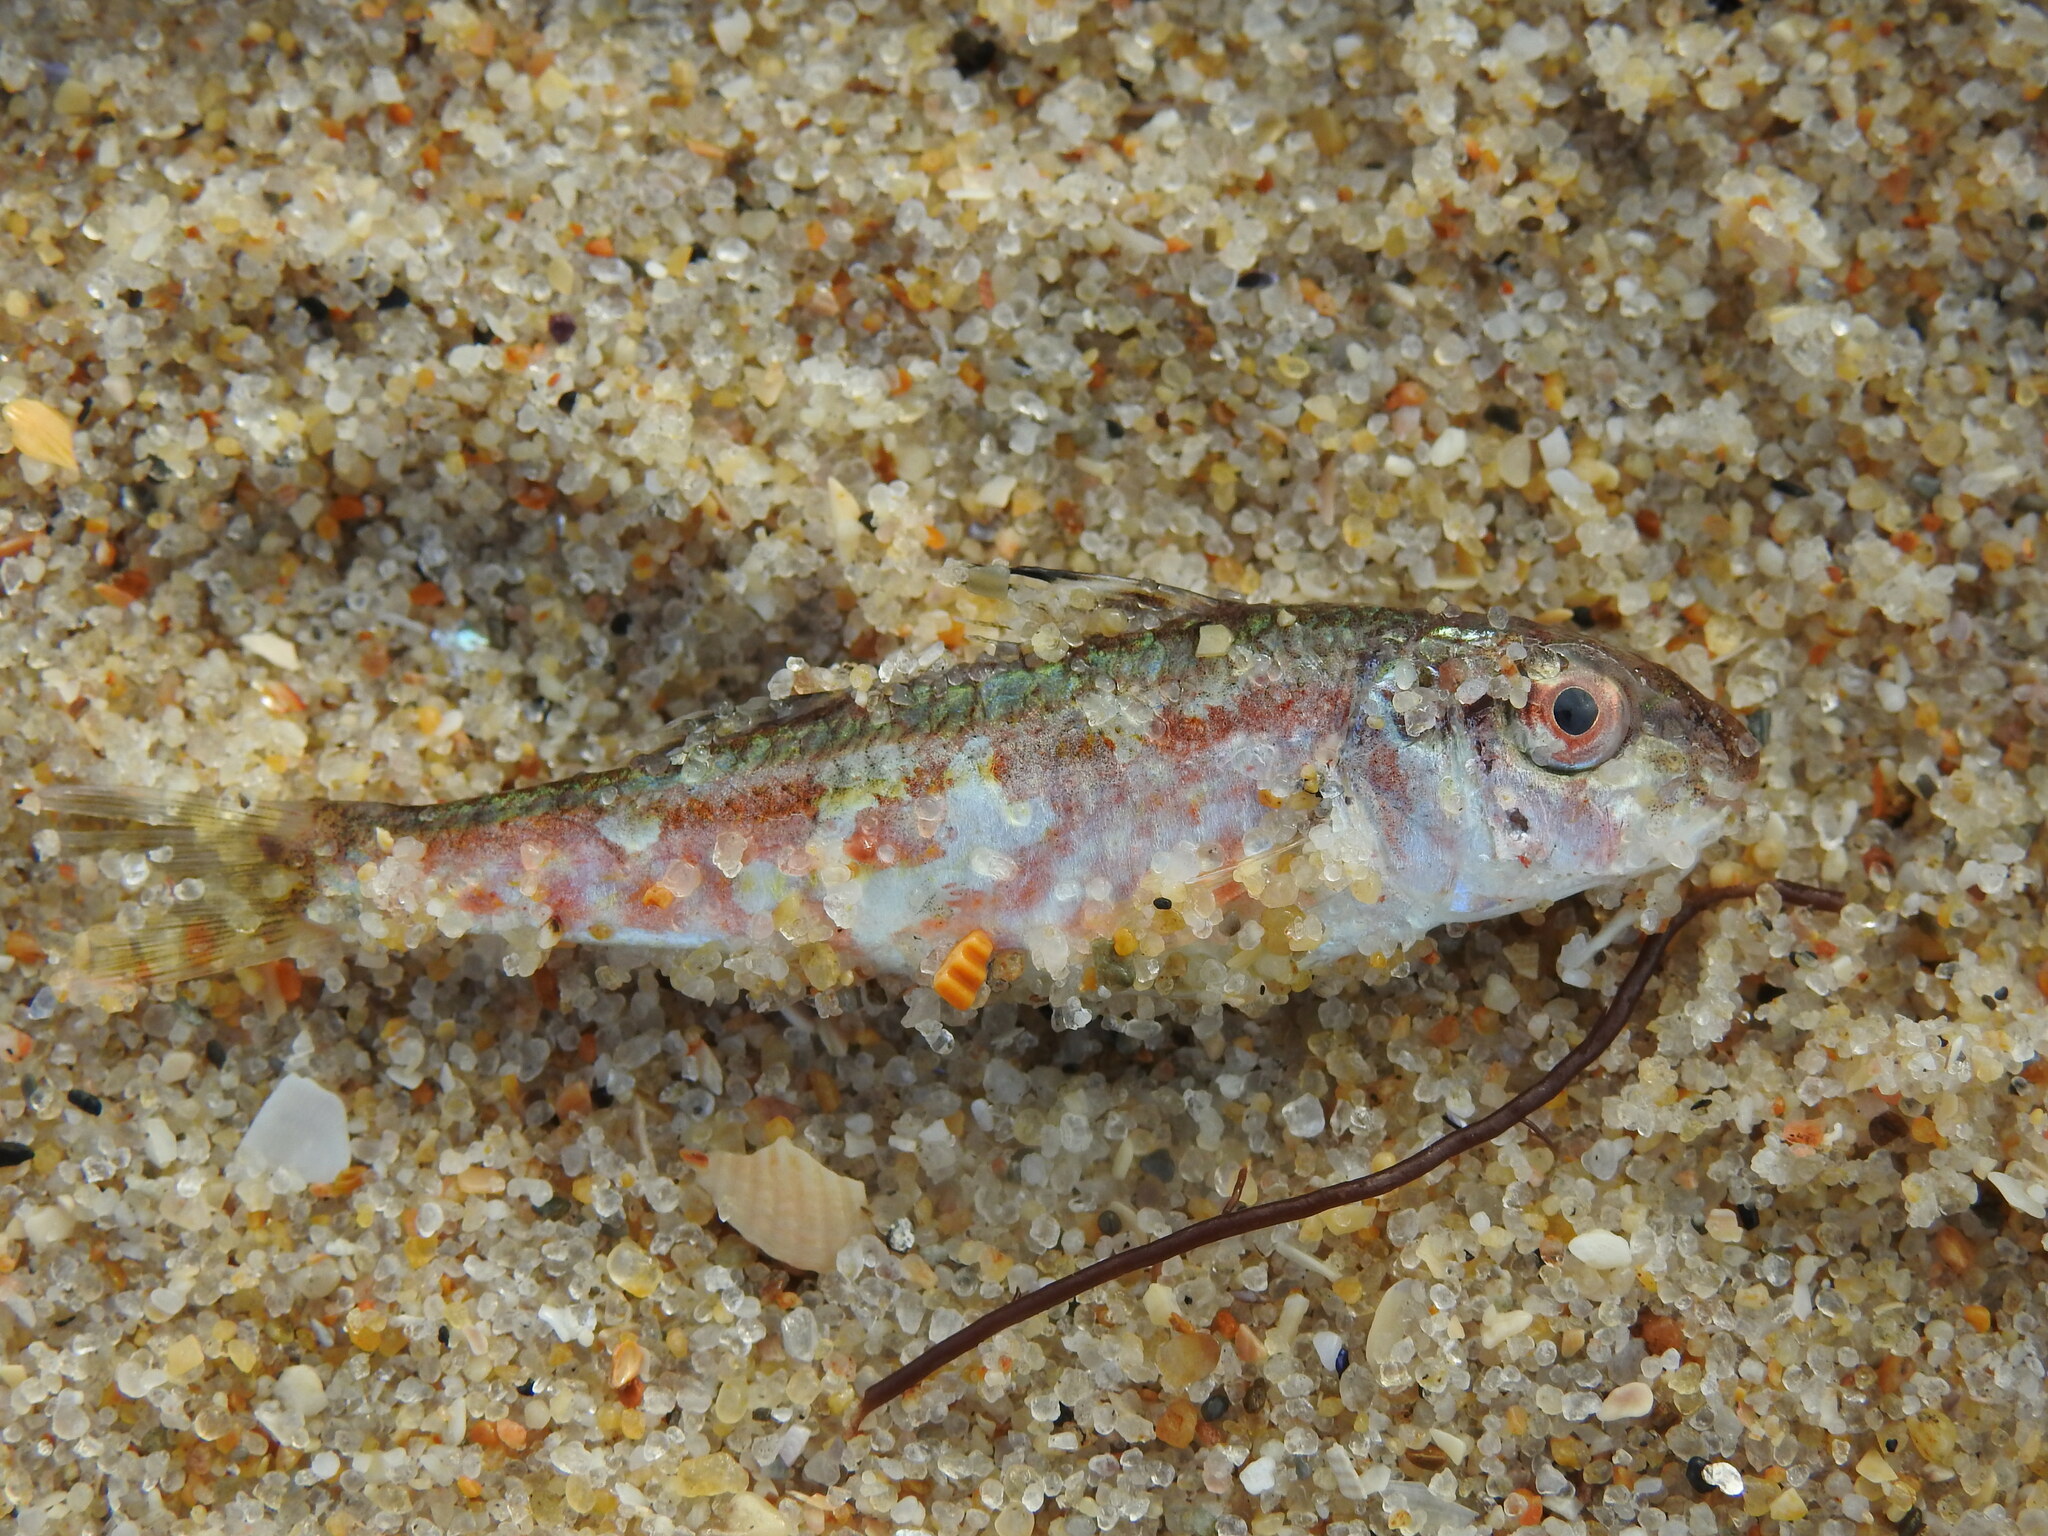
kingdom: Animalia
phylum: Chordata
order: Perciformes
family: Mullidae
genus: Mullus
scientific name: Mullus surmuletus
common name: Red mullet
